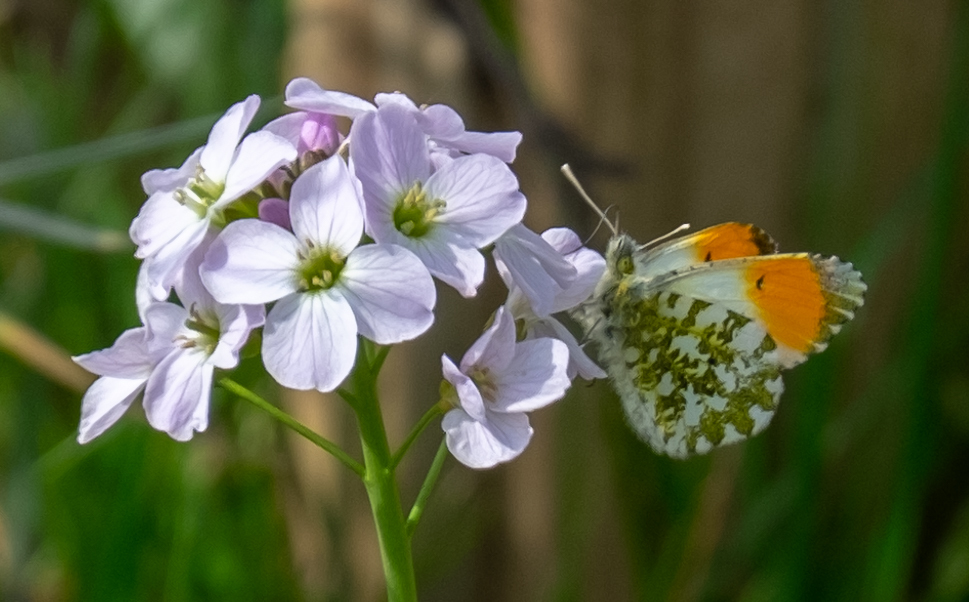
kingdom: Animalia
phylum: Arthropoda
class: Insecta
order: Lepidoptera
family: Pieridae
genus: Anthocharis
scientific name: Anthocharis cardamines
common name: Orange-tip
